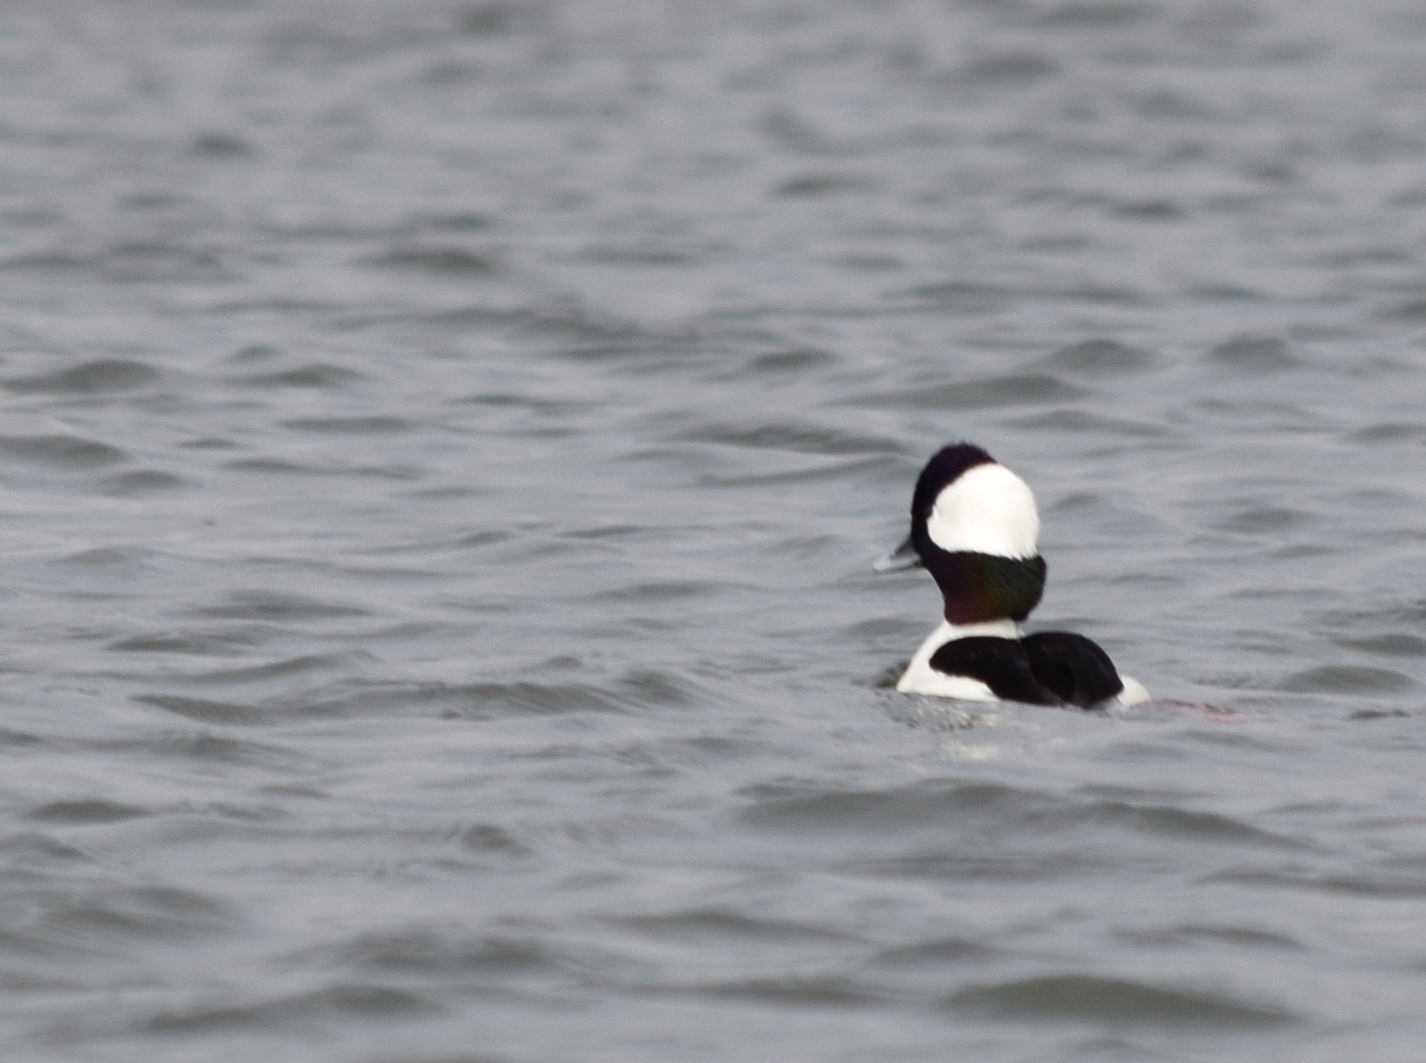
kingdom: Animalia
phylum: Chordata
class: Aves
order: Anseriformes
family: Anatidae
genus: Bucephala
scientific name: Bucephala albeola
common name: Bufflehead
